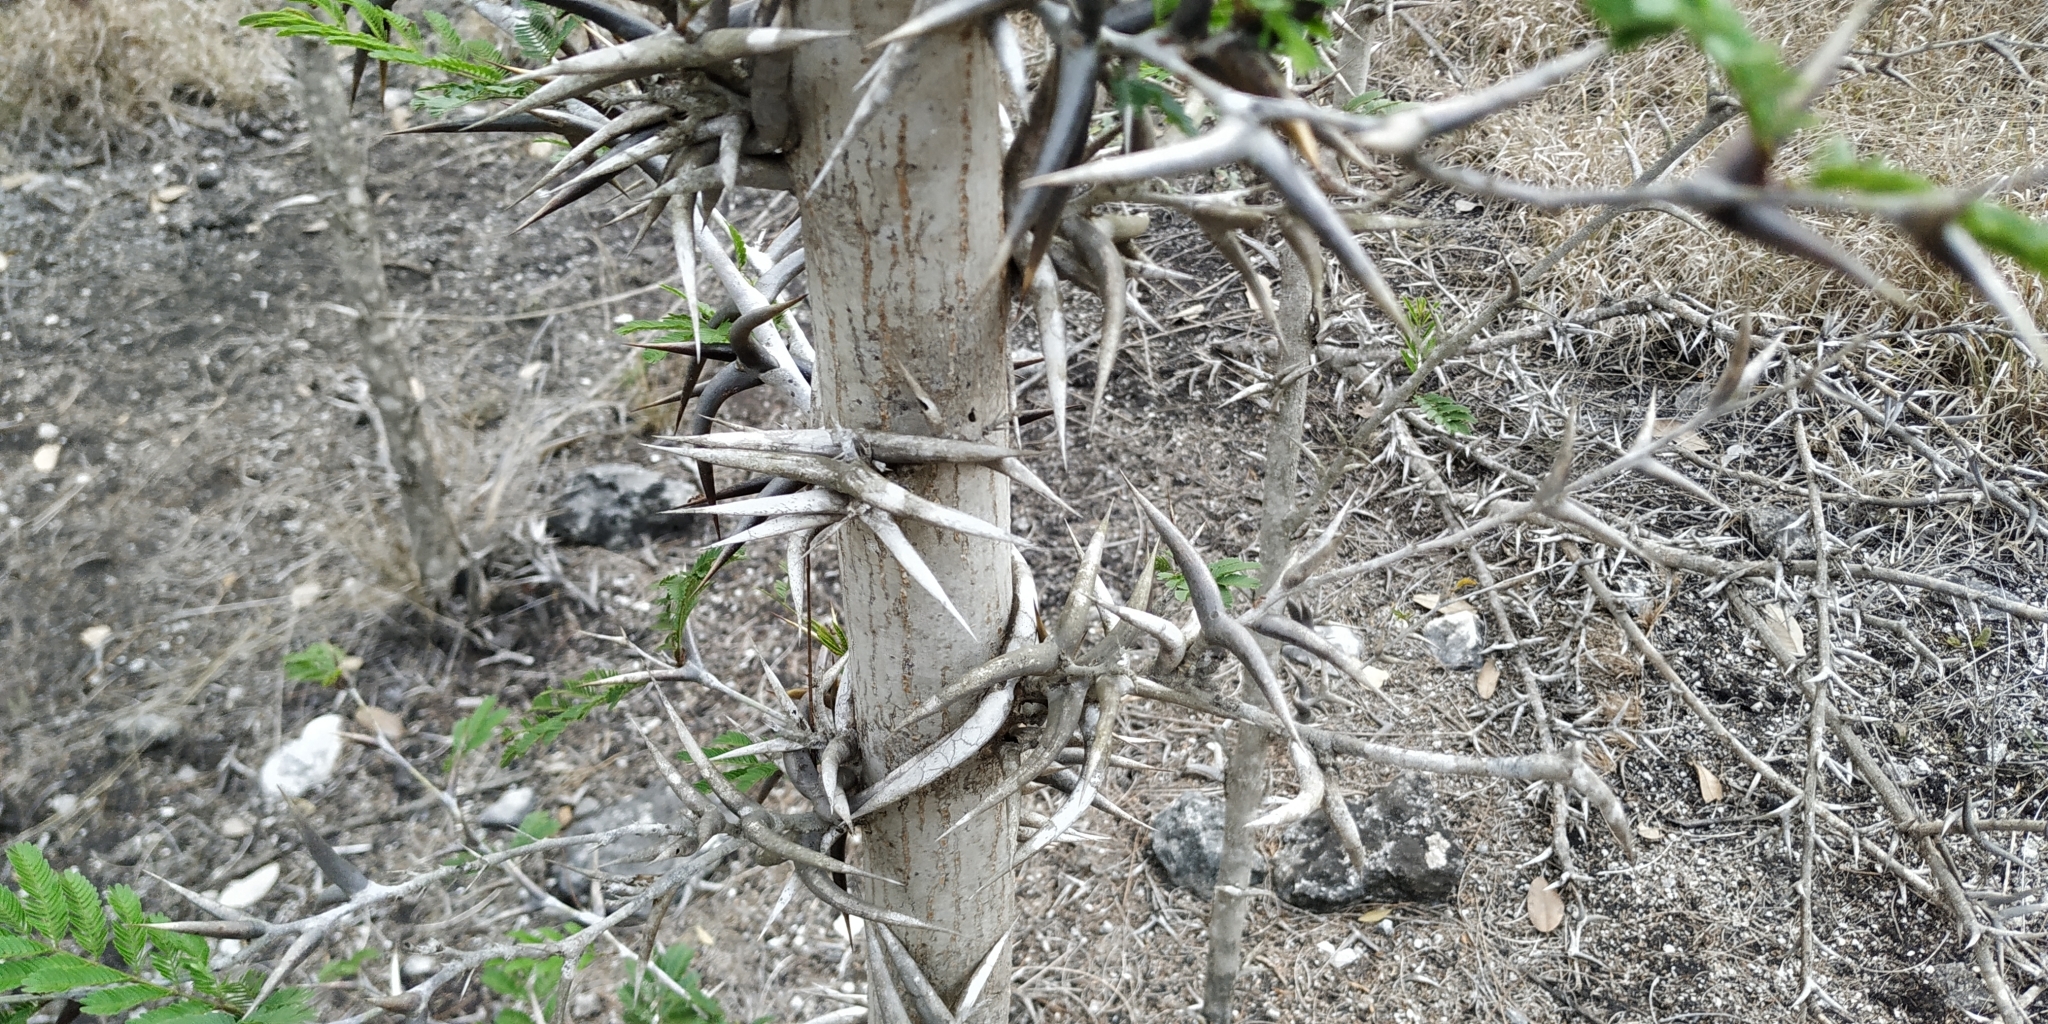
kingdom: Plantae
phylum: Tracheophyta
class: Magnoliopsida
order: Fabales
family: Fabaceae
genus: Vachellia
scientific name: Vachellia cornigera
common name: Bullhorn wattle
